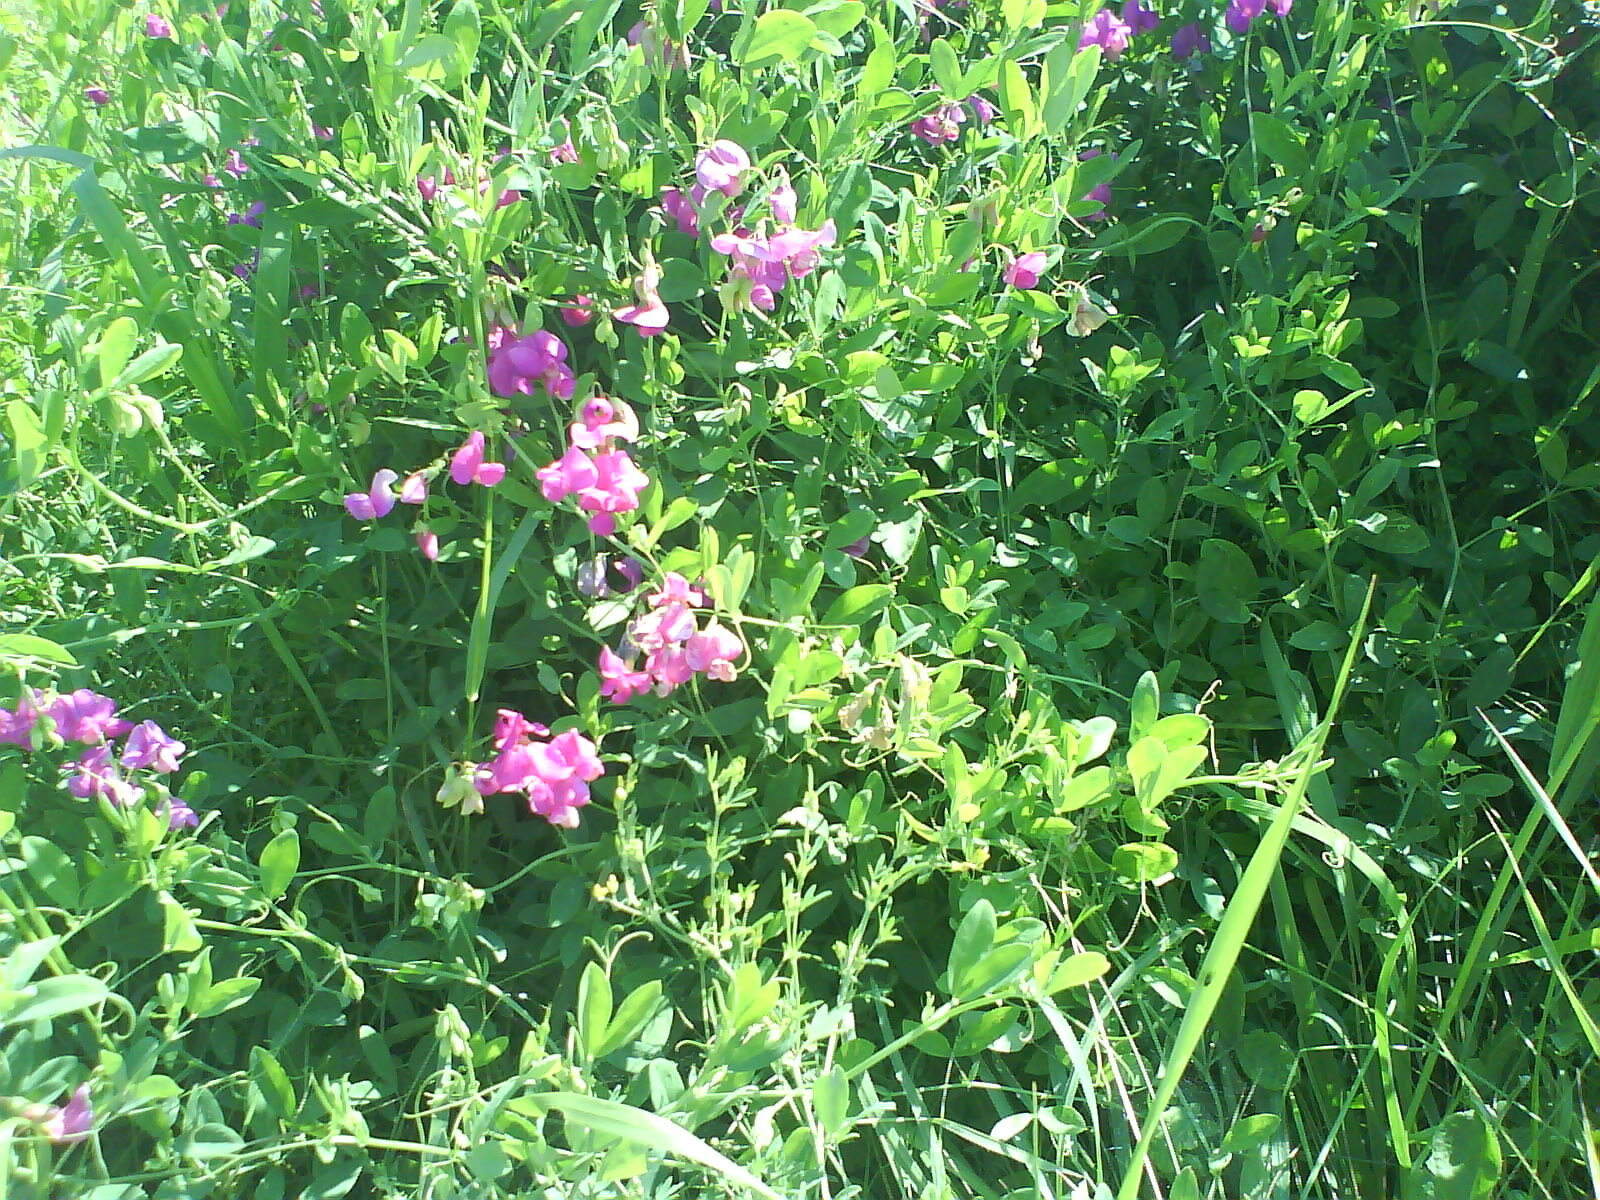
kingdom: Plantae
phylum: Tracheophyta
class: Magnoliopsida
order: Fabales
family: Fabaceae
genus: Lathyrus
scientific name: Lathyrus tuberosus
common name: Tuberous pea
